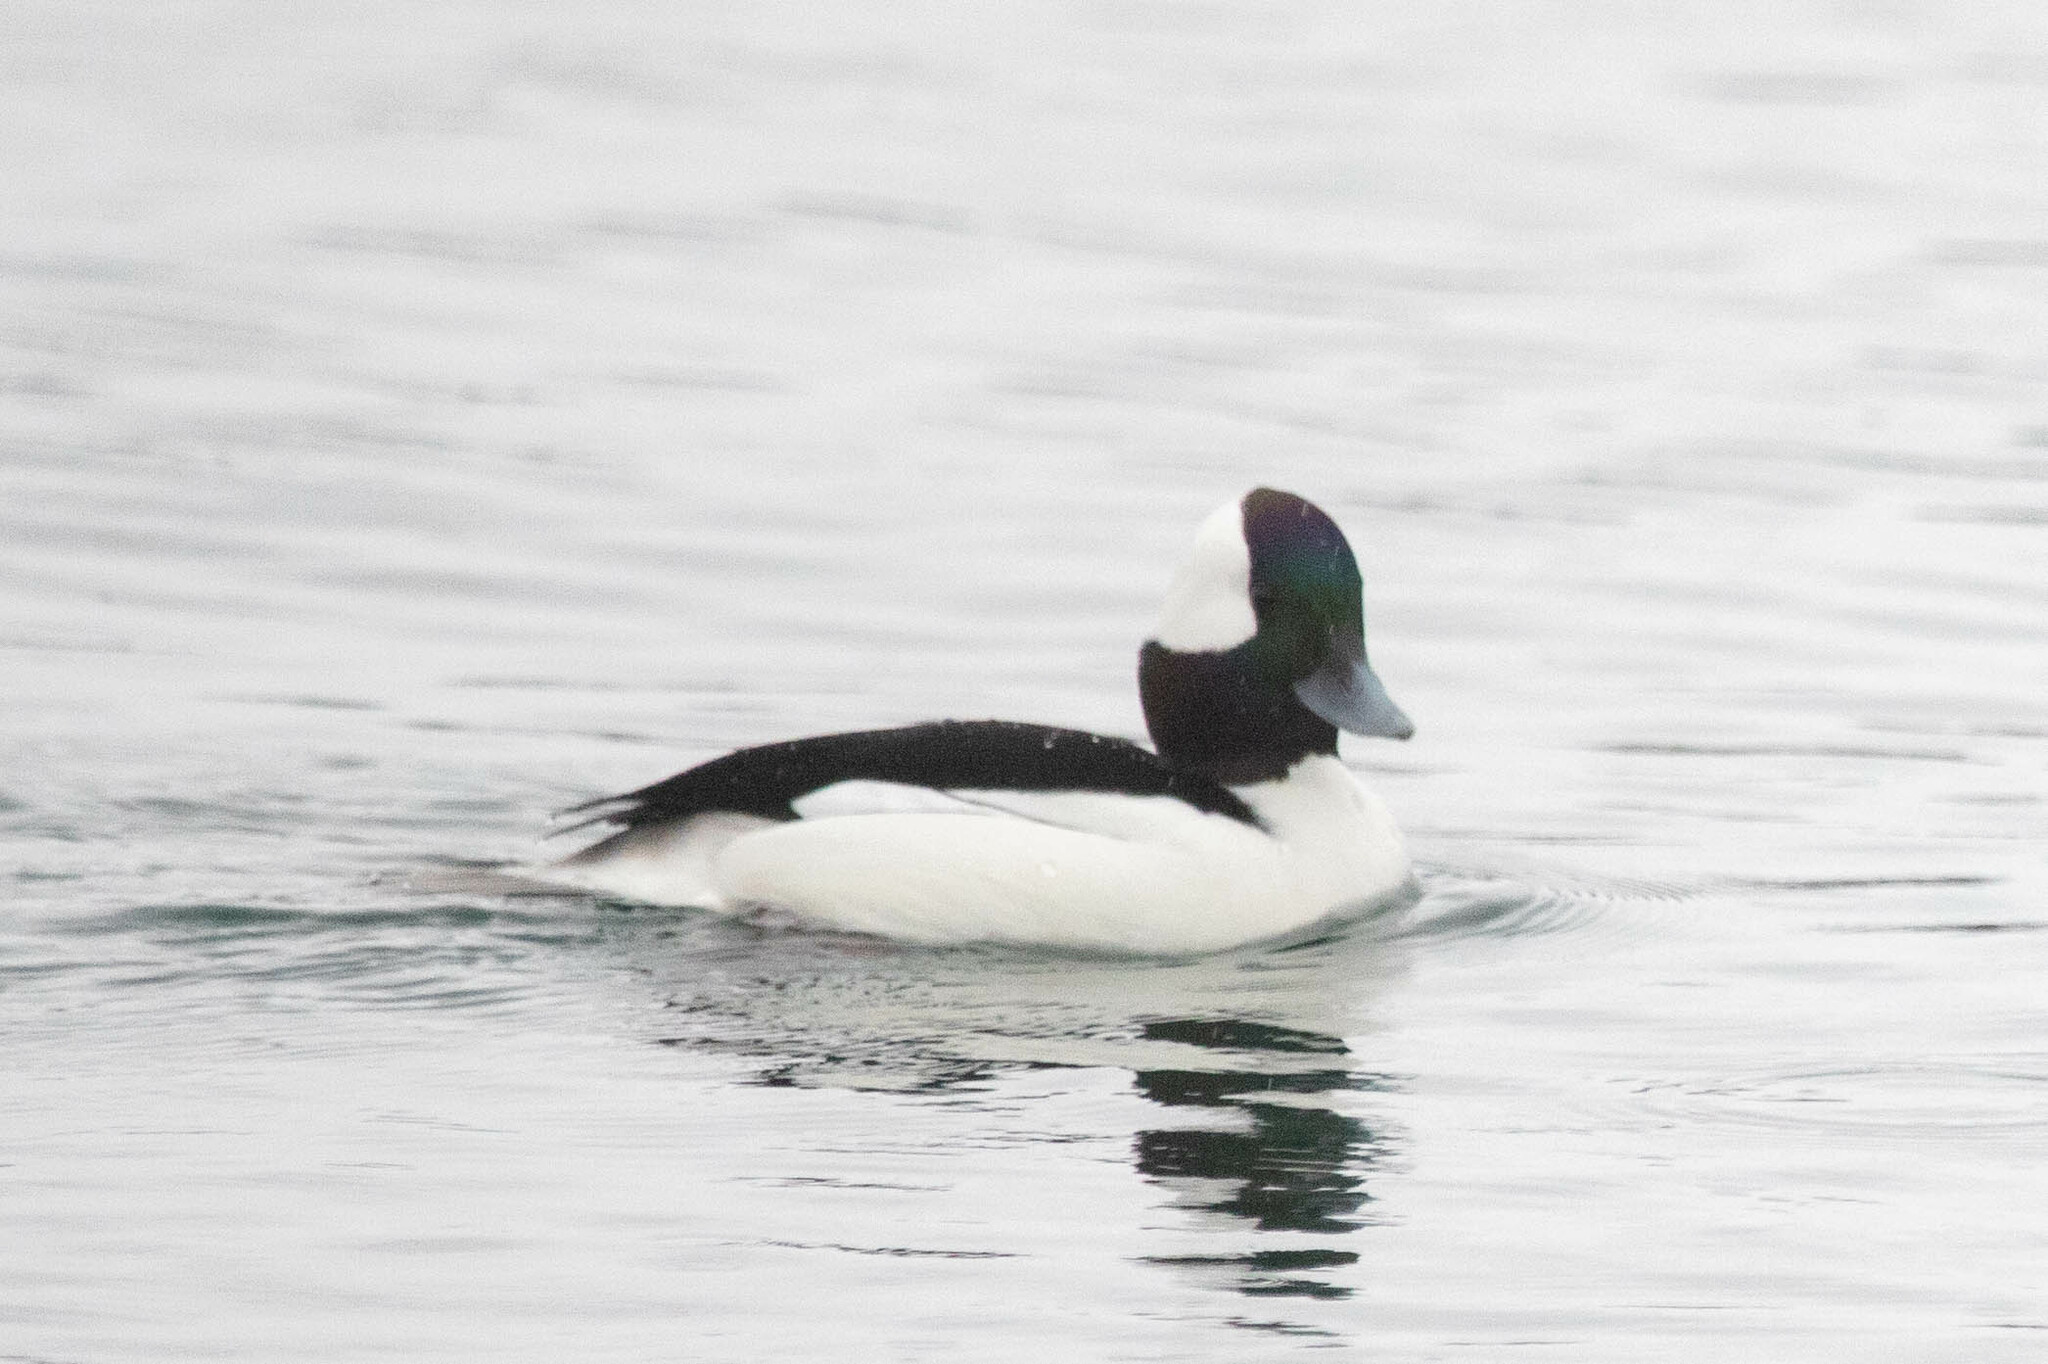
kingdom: Animalia
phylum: Chordata
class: Aves
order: Anseriformes
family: Anatidae
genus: Bucephala
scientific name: Bucephala albeola
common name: Bufflehead
